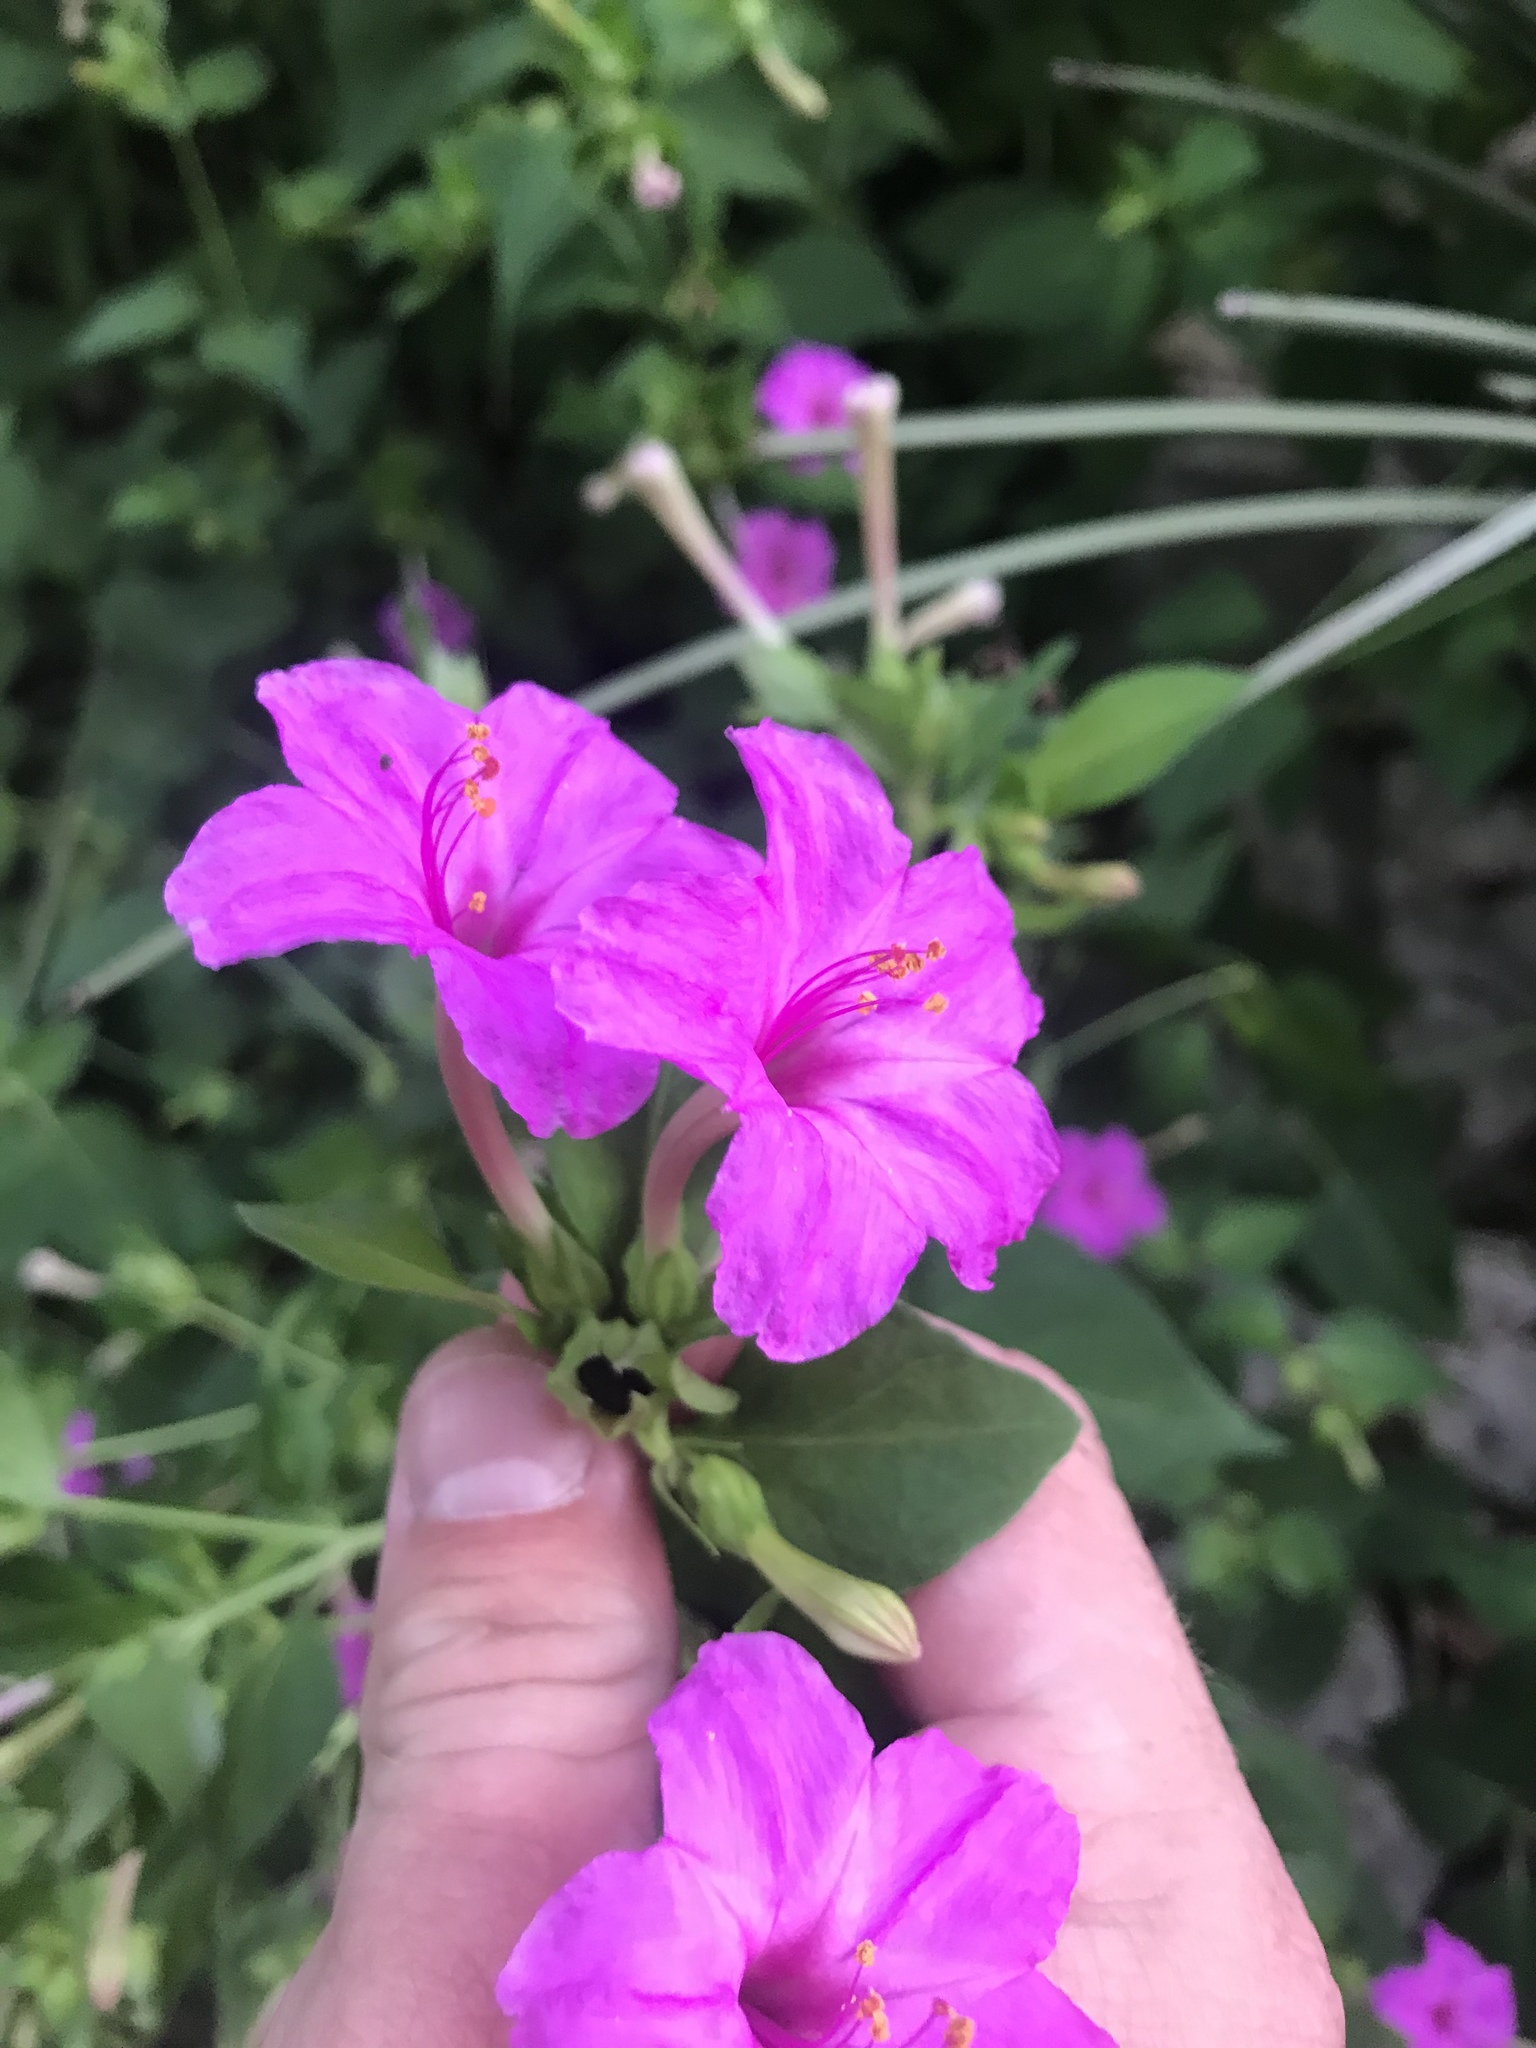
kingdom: Plantae
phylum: Tracheophyta
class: Magnoliopsida
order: Caryophyllales
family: Nyctaginaceae
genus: Mirabilis
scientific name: Mirabilis jalapa
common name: Marvel-of-peru
